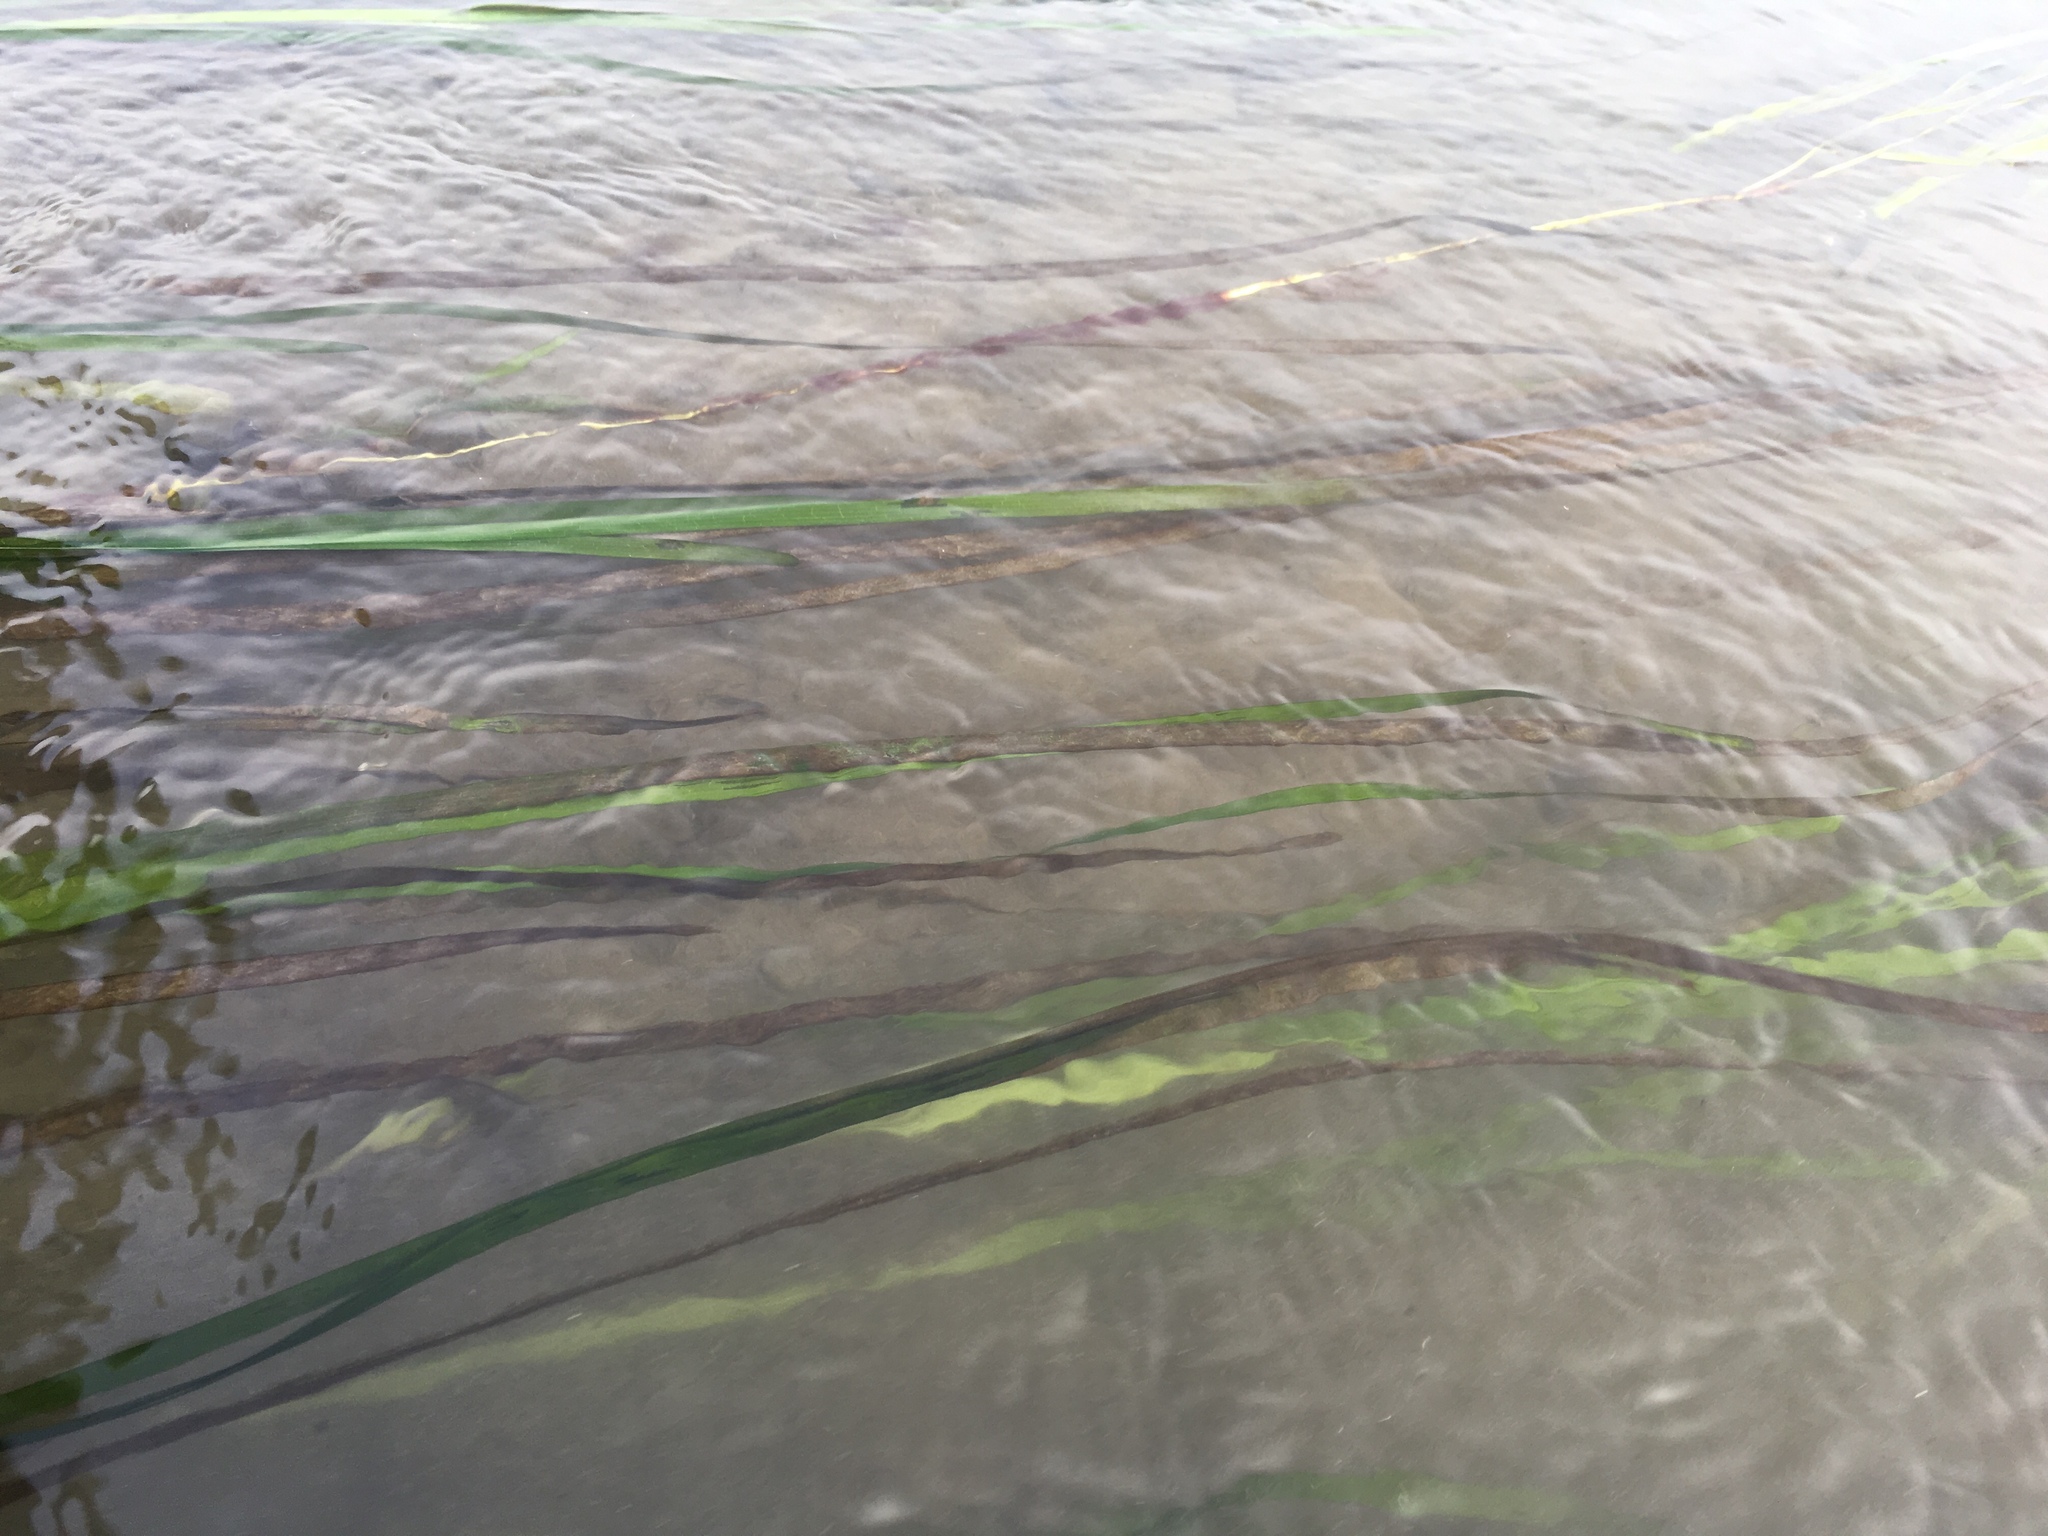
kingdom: Plantae
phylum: Tracheophyta
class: Liliopsida
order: Alismatales
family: Zosteraceae
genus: Zostera
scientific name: Zostera marina
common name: Eelgrass
